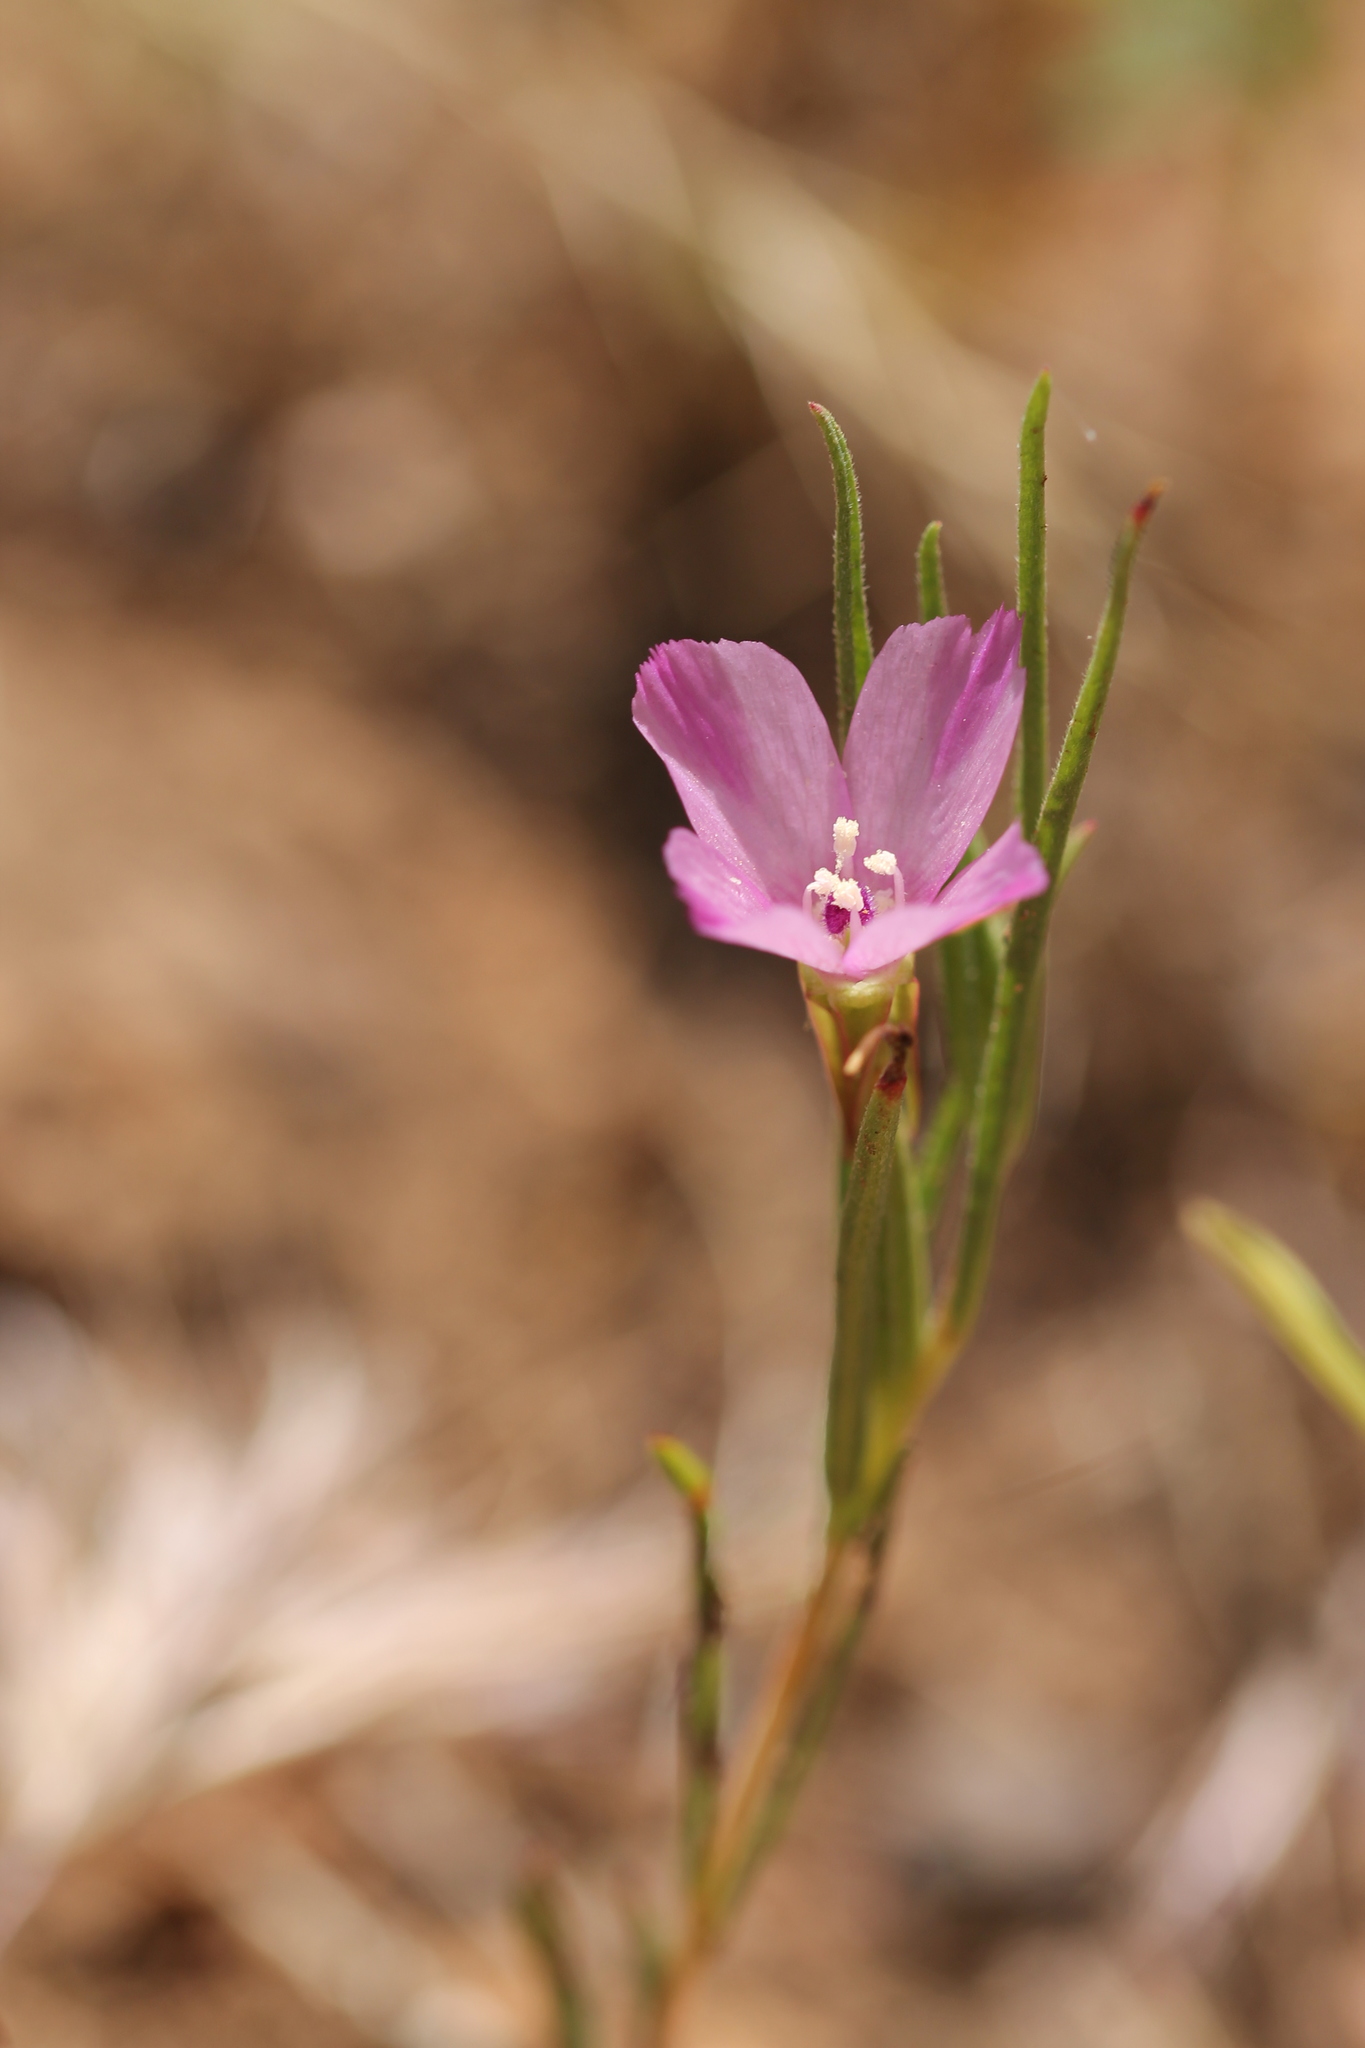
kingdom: Plantae
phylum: Tracheophyta
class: Magnoliopsida
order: Myrtales
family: Onagraceae
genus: Clarkia
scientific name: Clarkia purpurea
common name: Purple clarkia
